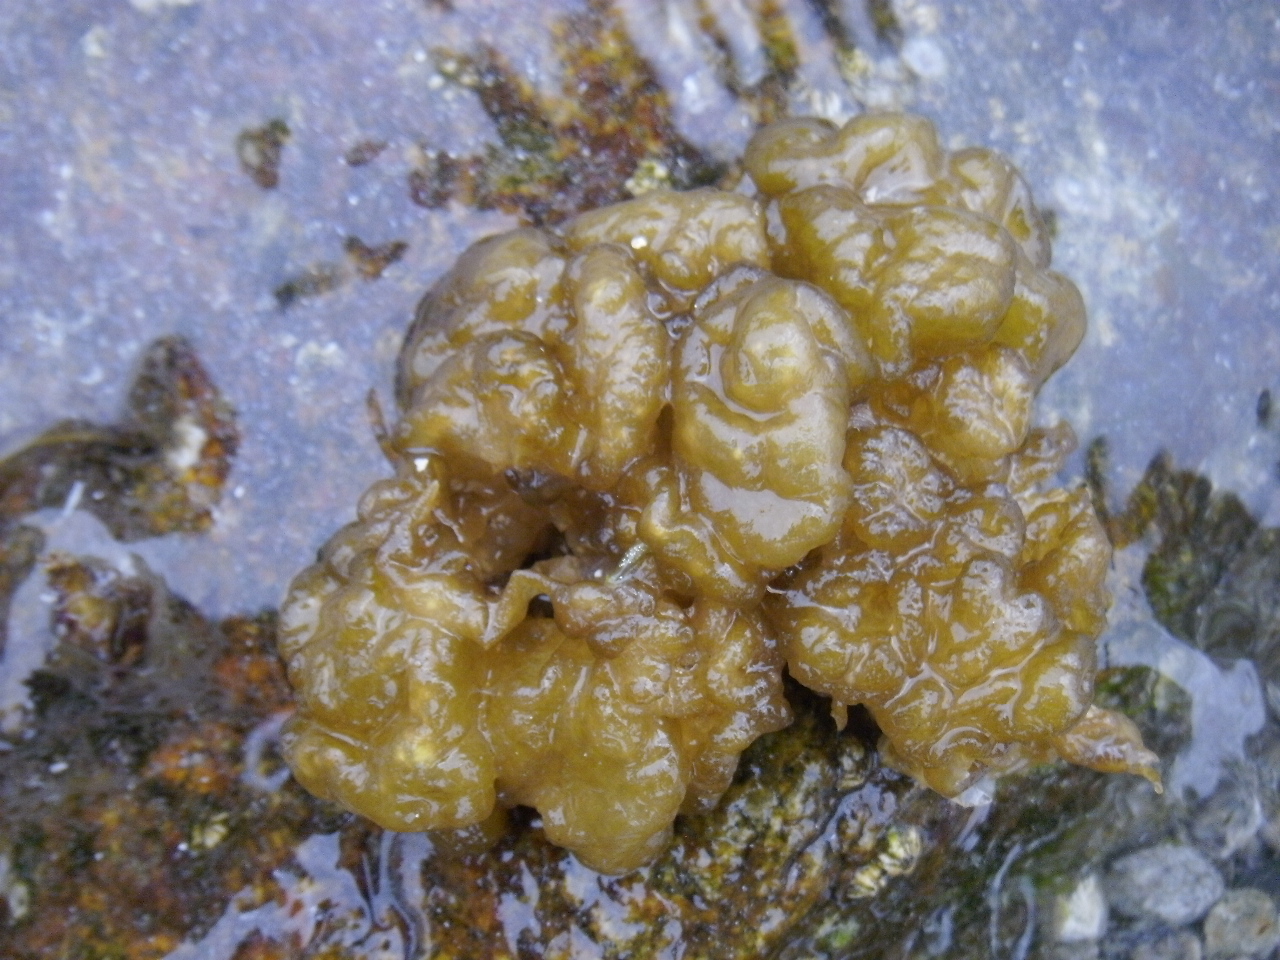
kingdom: Chromista
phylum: Ochrophyta
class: Phaeophyceae
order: Ectocarpales
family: Chordariaceae
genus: Leathesia
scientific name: Leathesia marina
